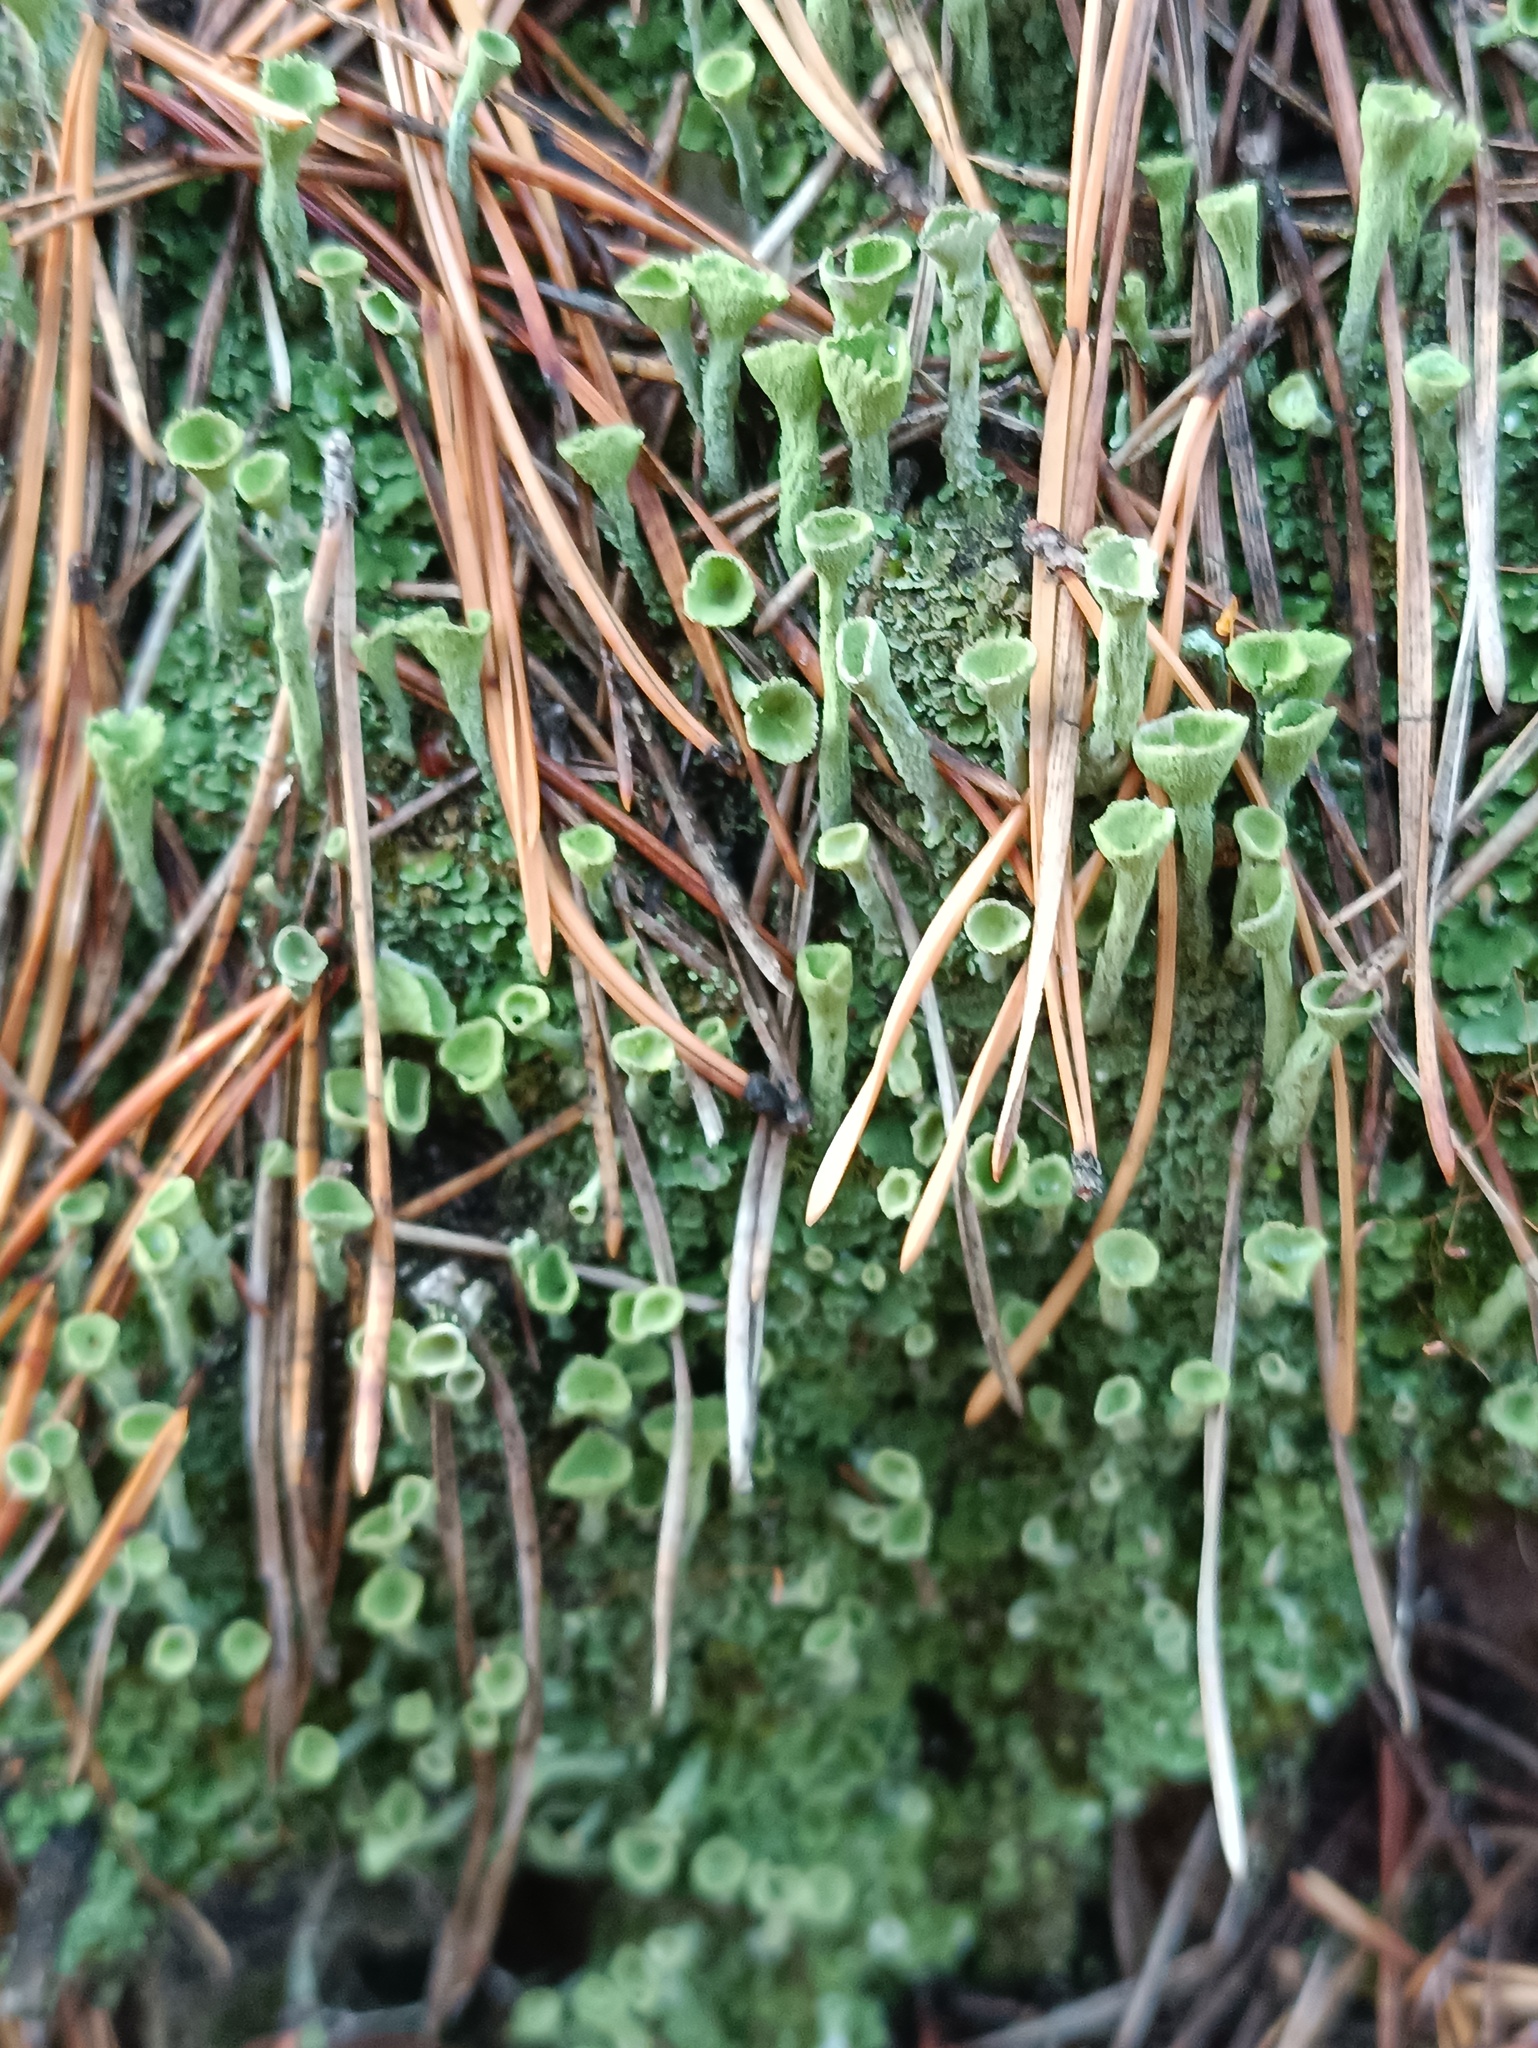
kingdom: Fungi
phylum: Ascomycota
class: Lecanoromycetes
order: Lecanorales
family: Cladoniaceae
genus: Cladonia
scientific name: Cladonia fimbriata
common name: Powdered trumpet lichen
